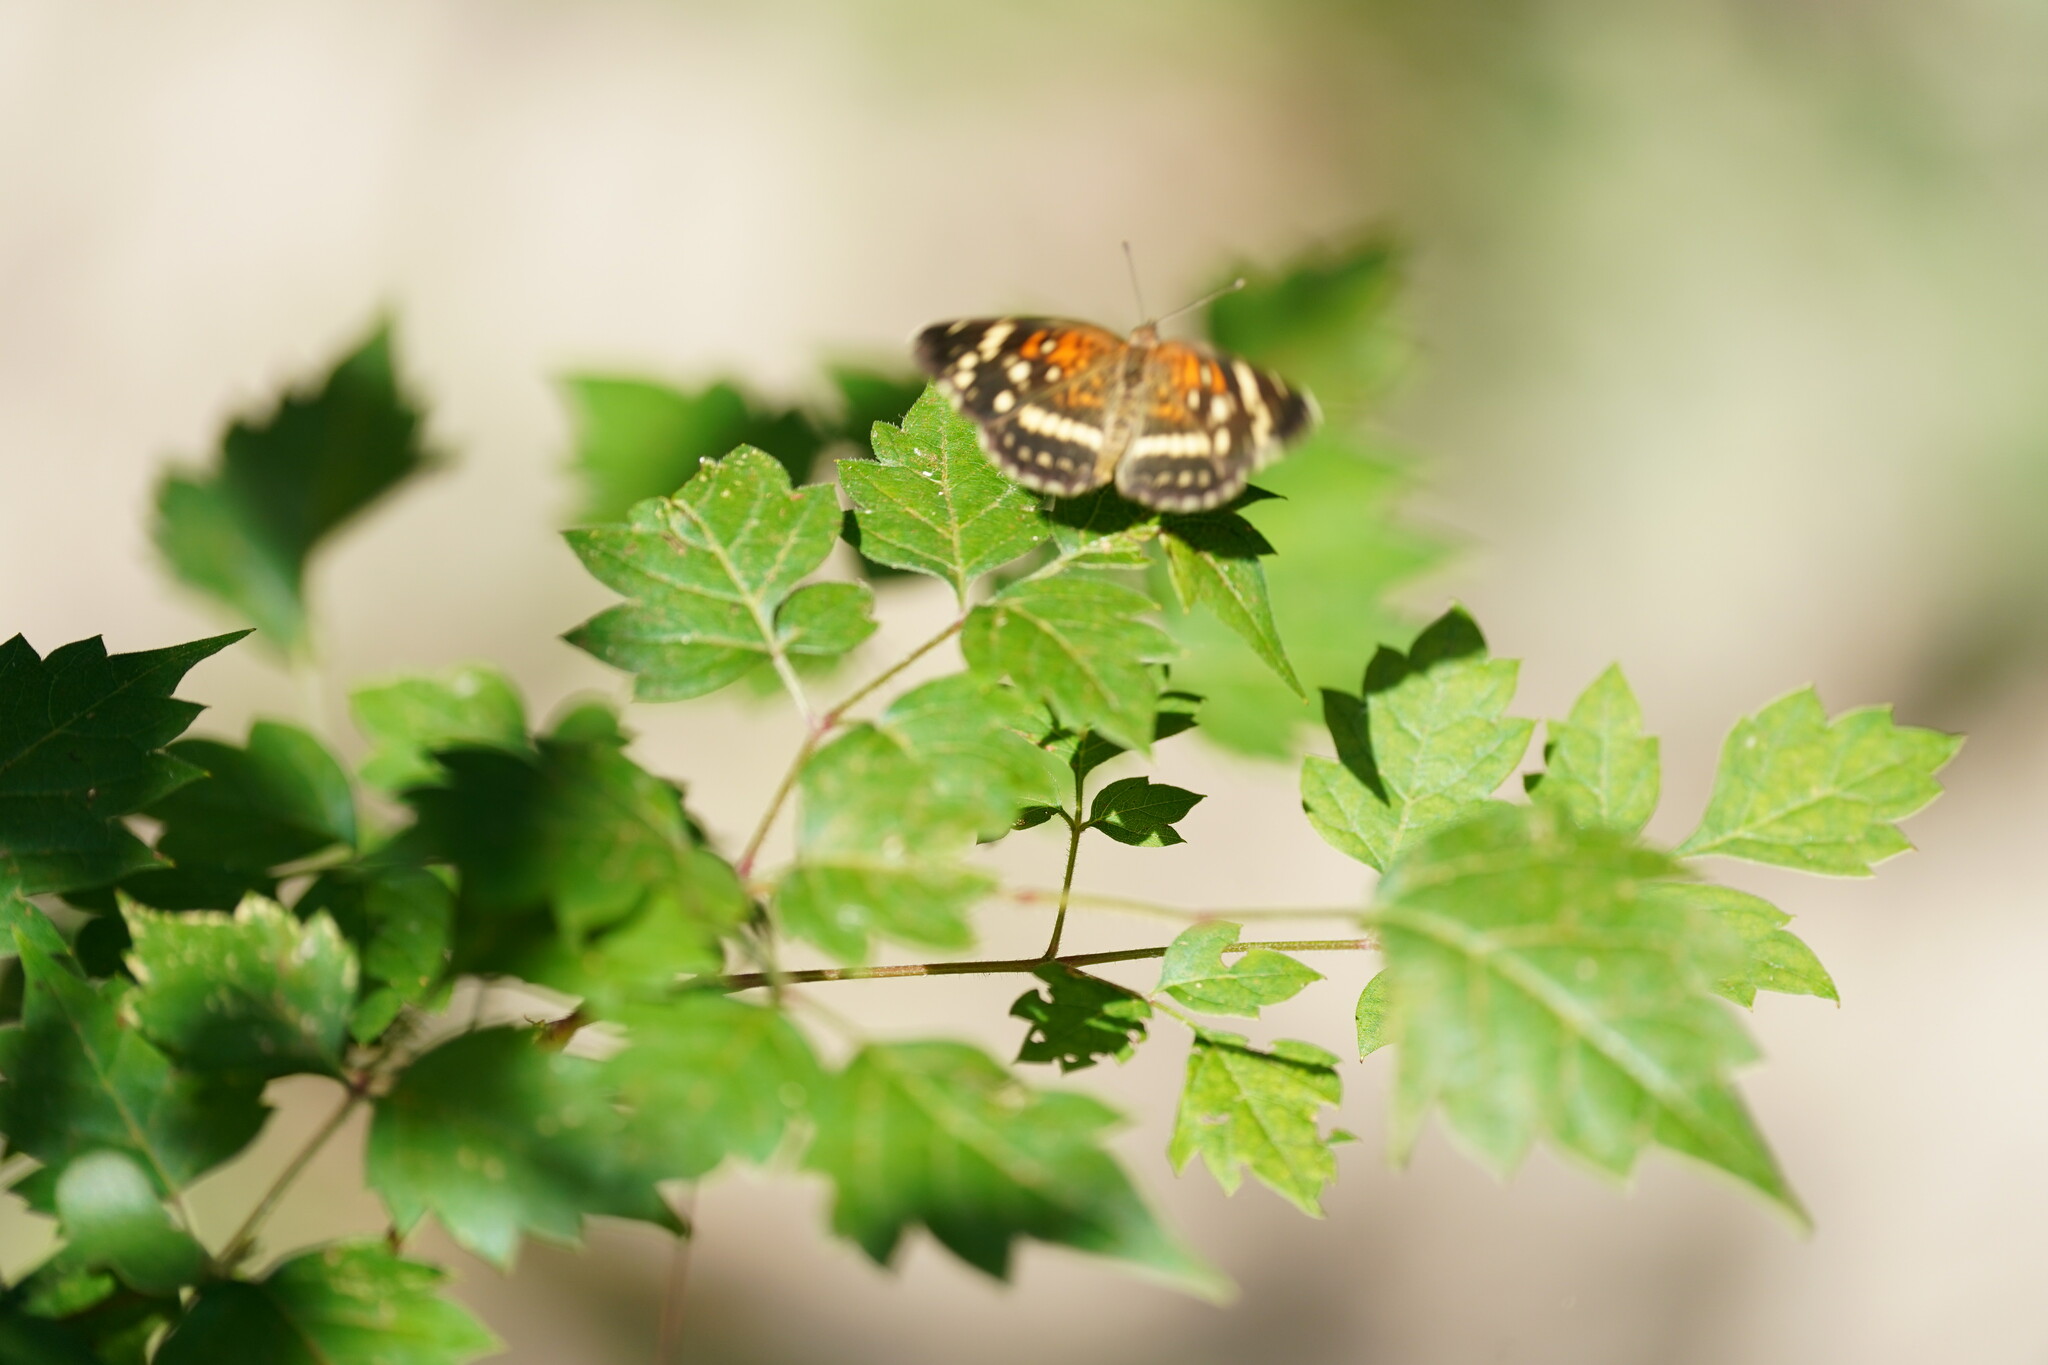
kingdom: Animalia
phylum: Arthropoda
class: Insecta
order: Lepidoptera
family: Nymphalidae
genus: Anthanassa
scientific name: Anthanassa taxana
